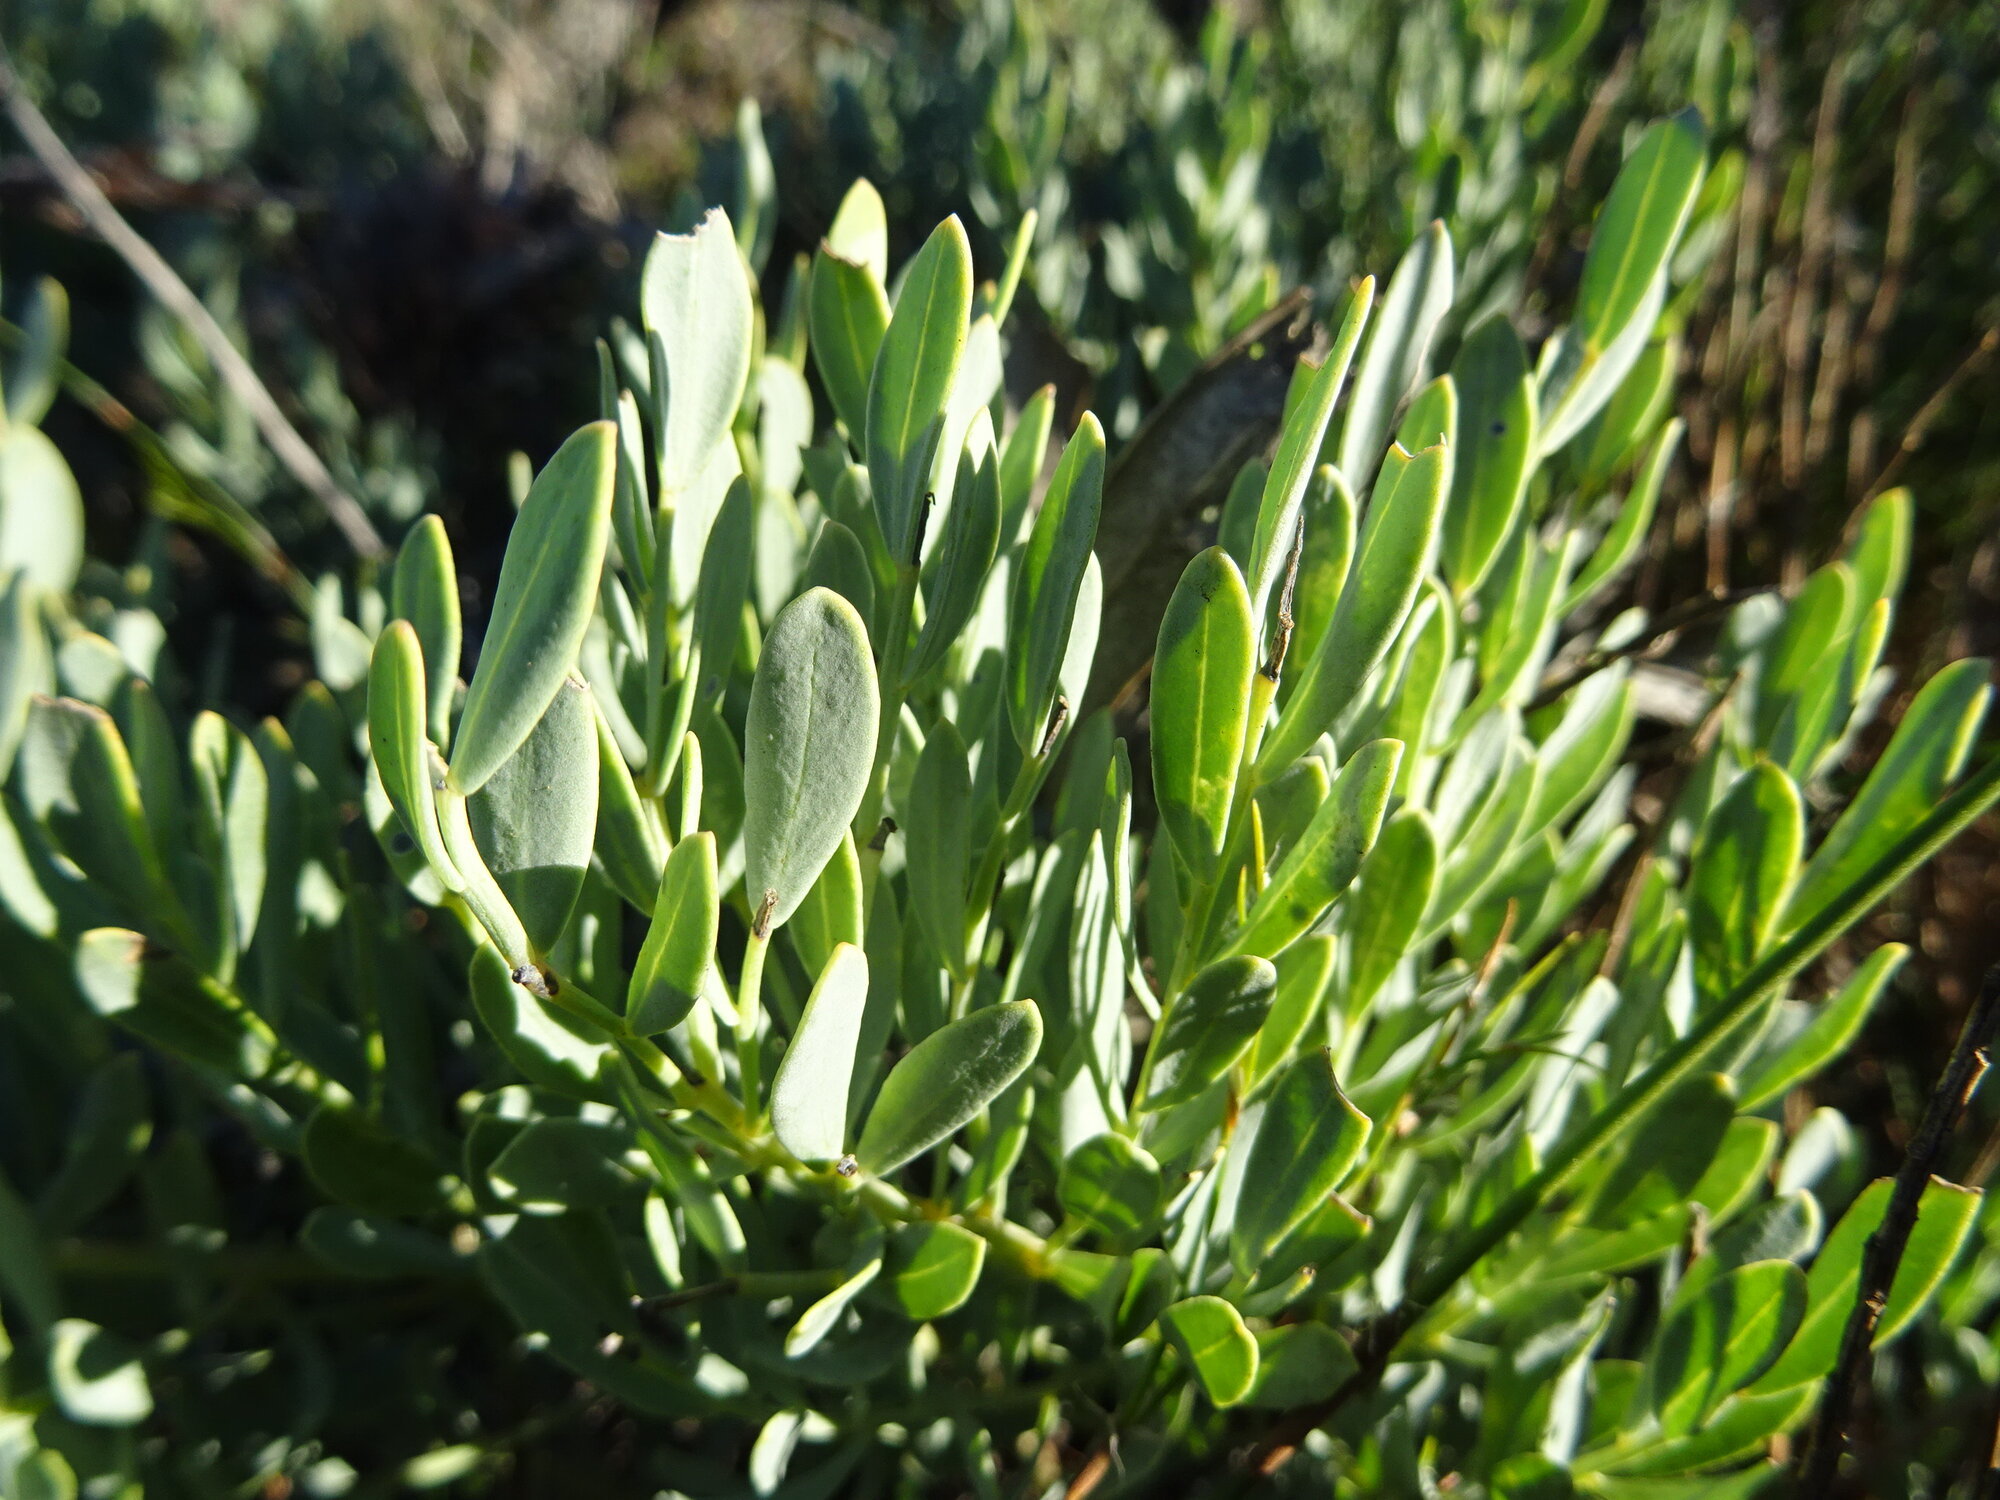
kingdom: Plantae
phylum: Tracheophyta
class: Magnoliopsida
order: Solanales
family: Montiniaceae
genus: Montinia
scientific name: Montinia caryophyllacea
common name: Wild clove-bush
